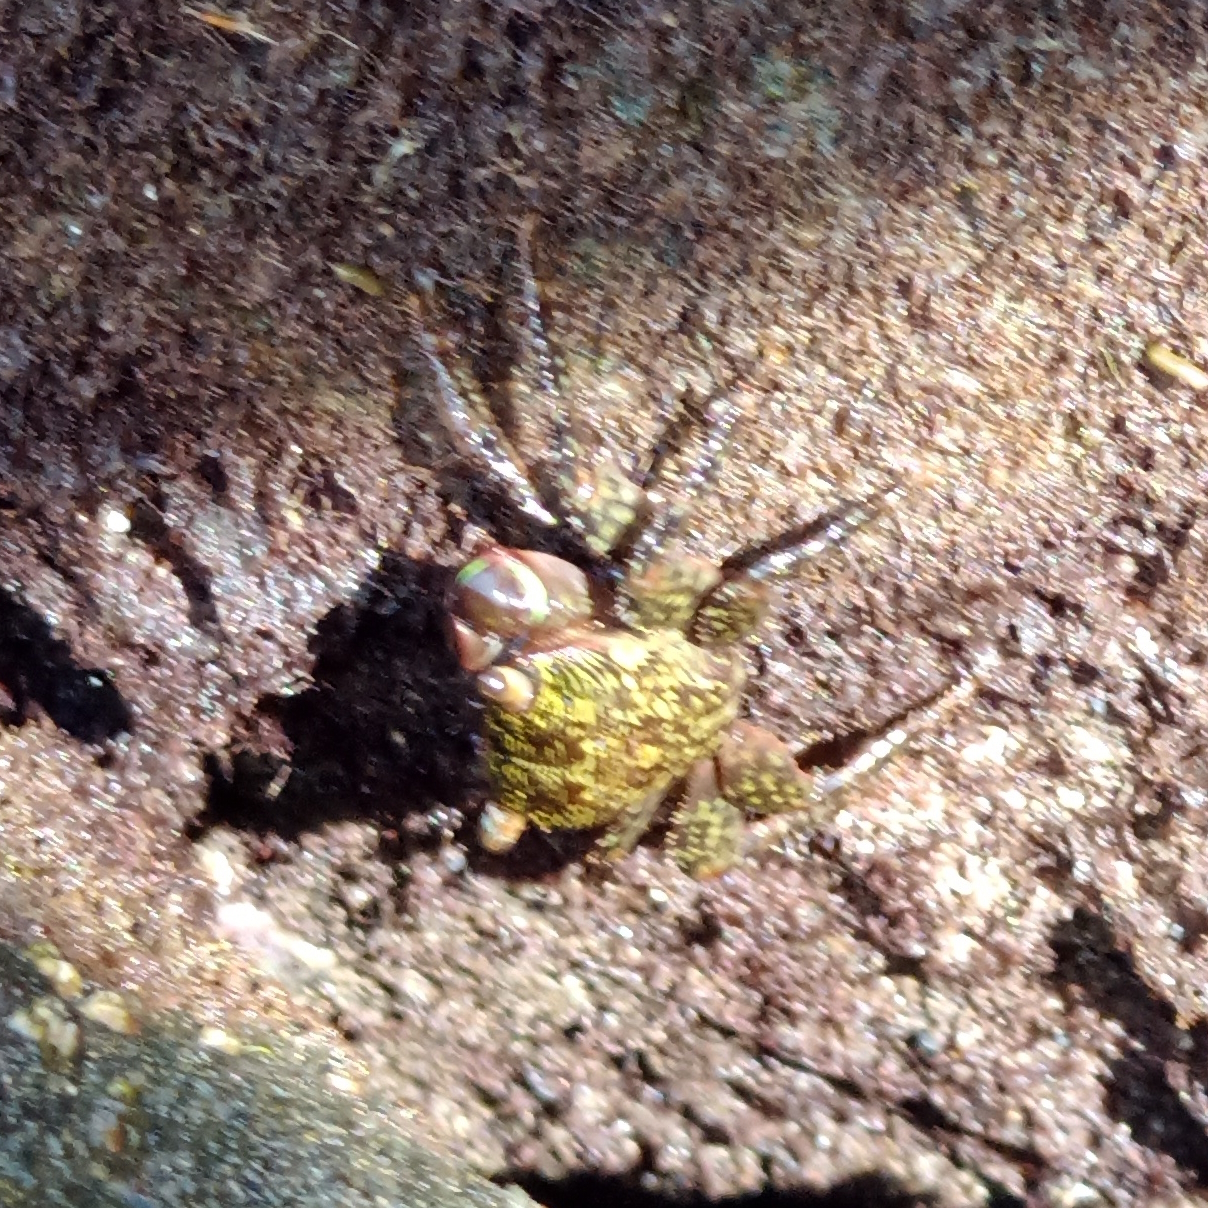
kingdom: Animalia
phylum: Arthropoda
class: Malacostraca
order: Decapoda
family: Grapsidae
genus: Pachygrapsus
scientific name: Pachygrapsus transversus
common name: Mottled shore crab
